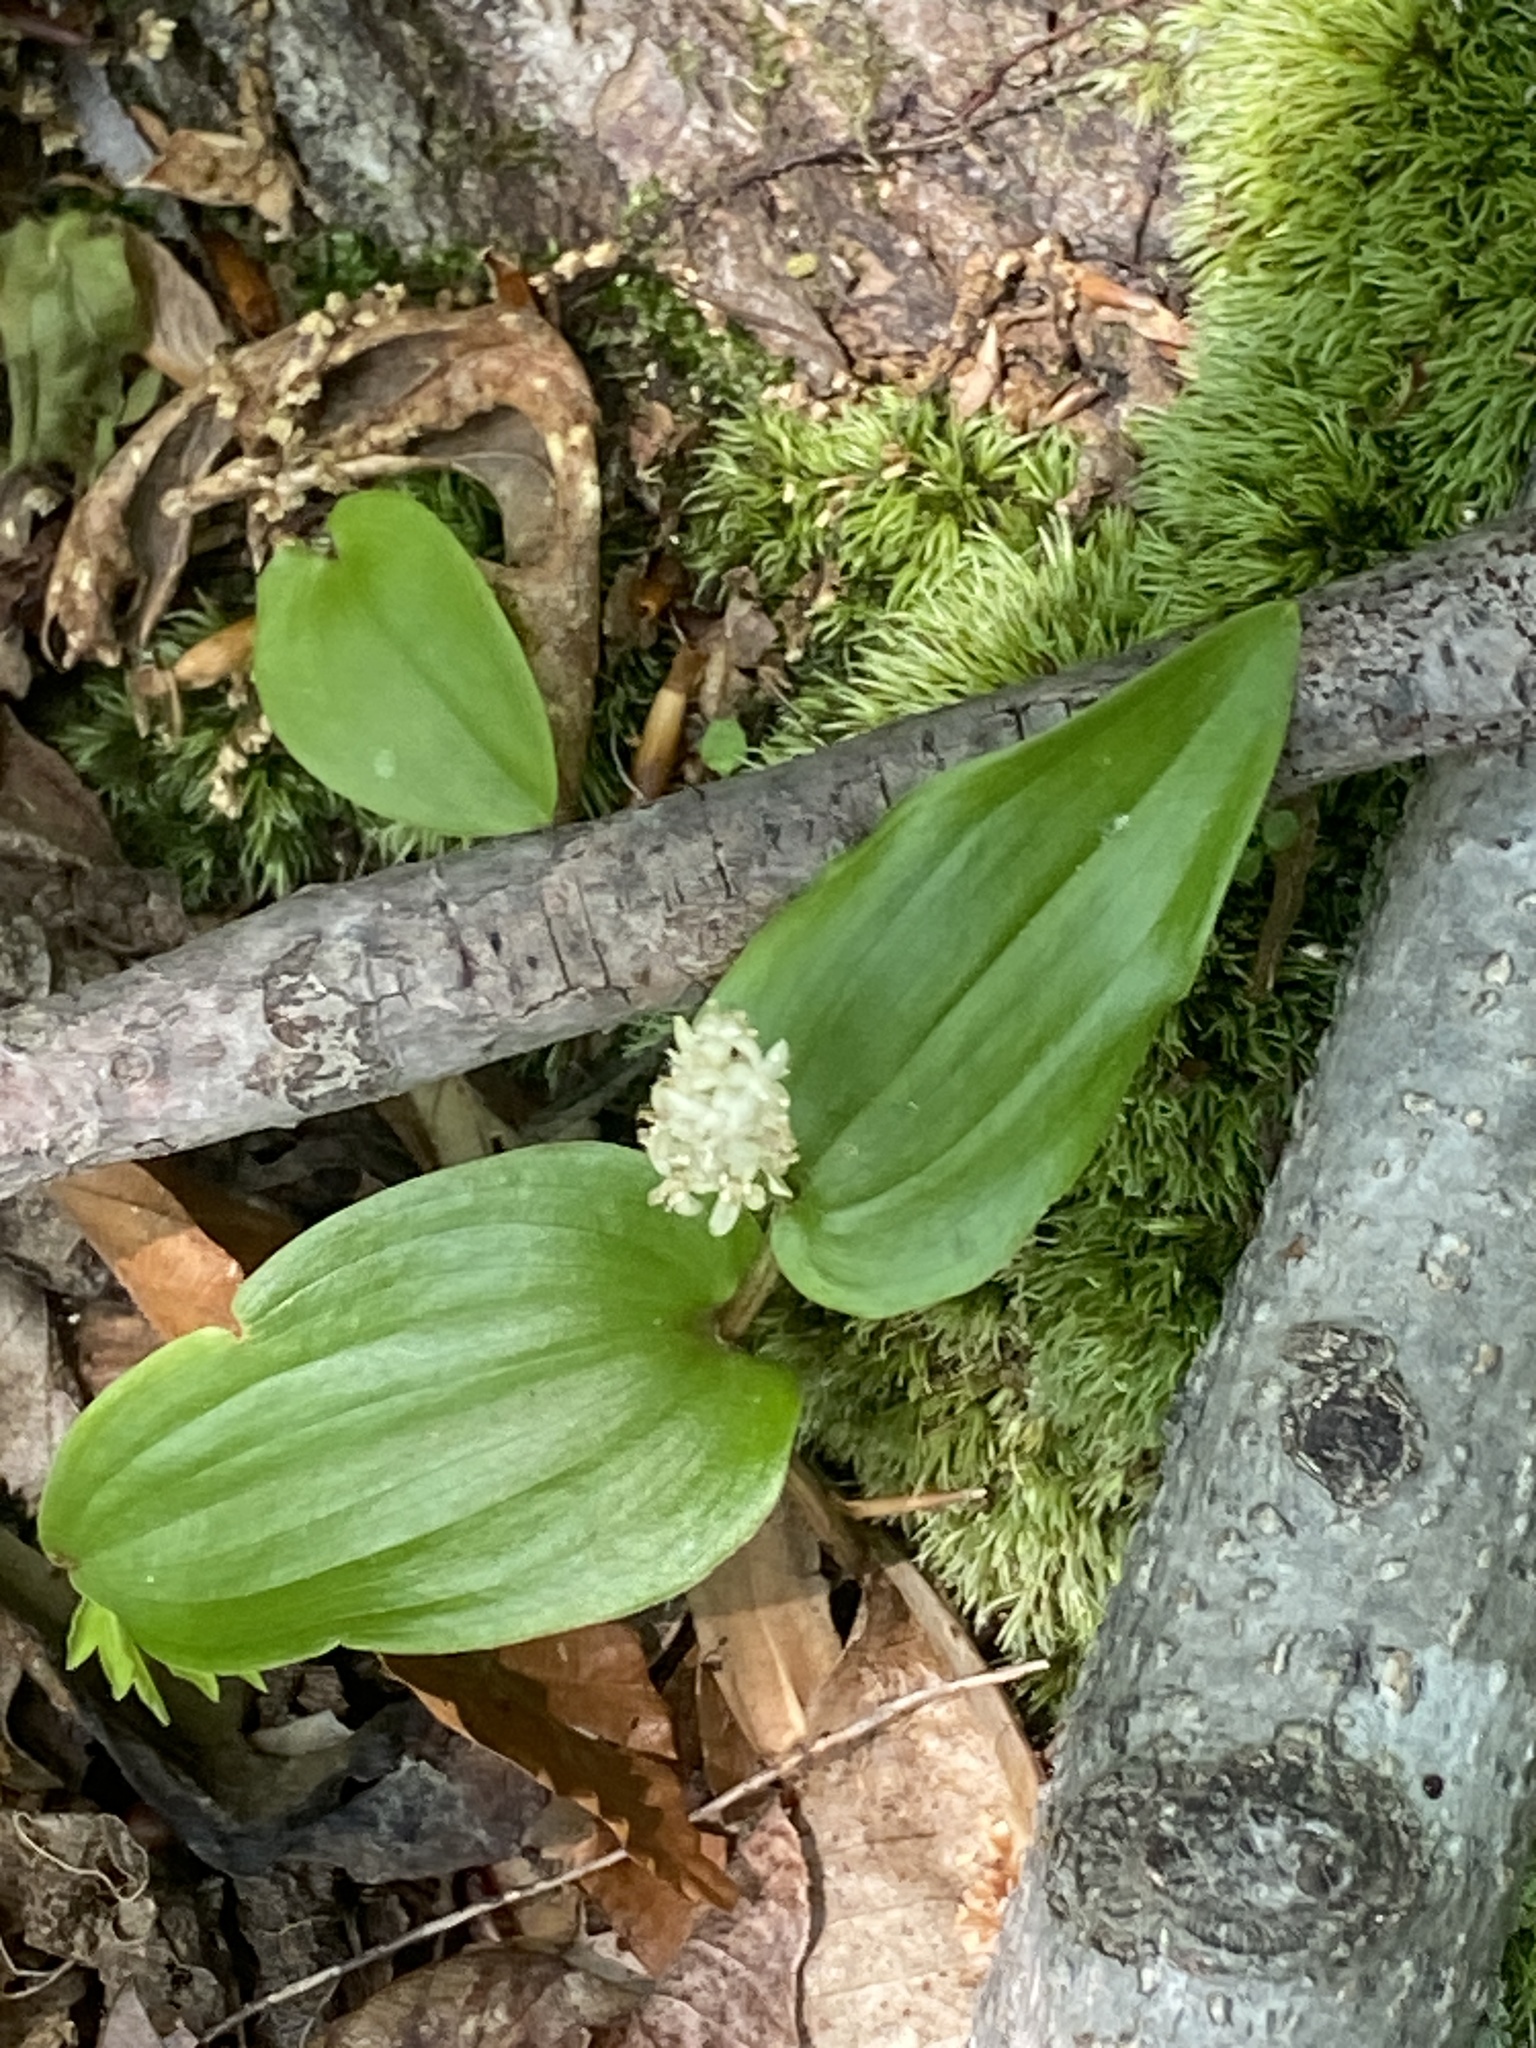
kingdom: Plantae
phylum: Tracheophyta
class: Liliopsida
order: Asparagales
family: Asparagaceae
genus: Maianthemum
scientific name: Maianthemum canadense
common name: False lily-of-the-valley
